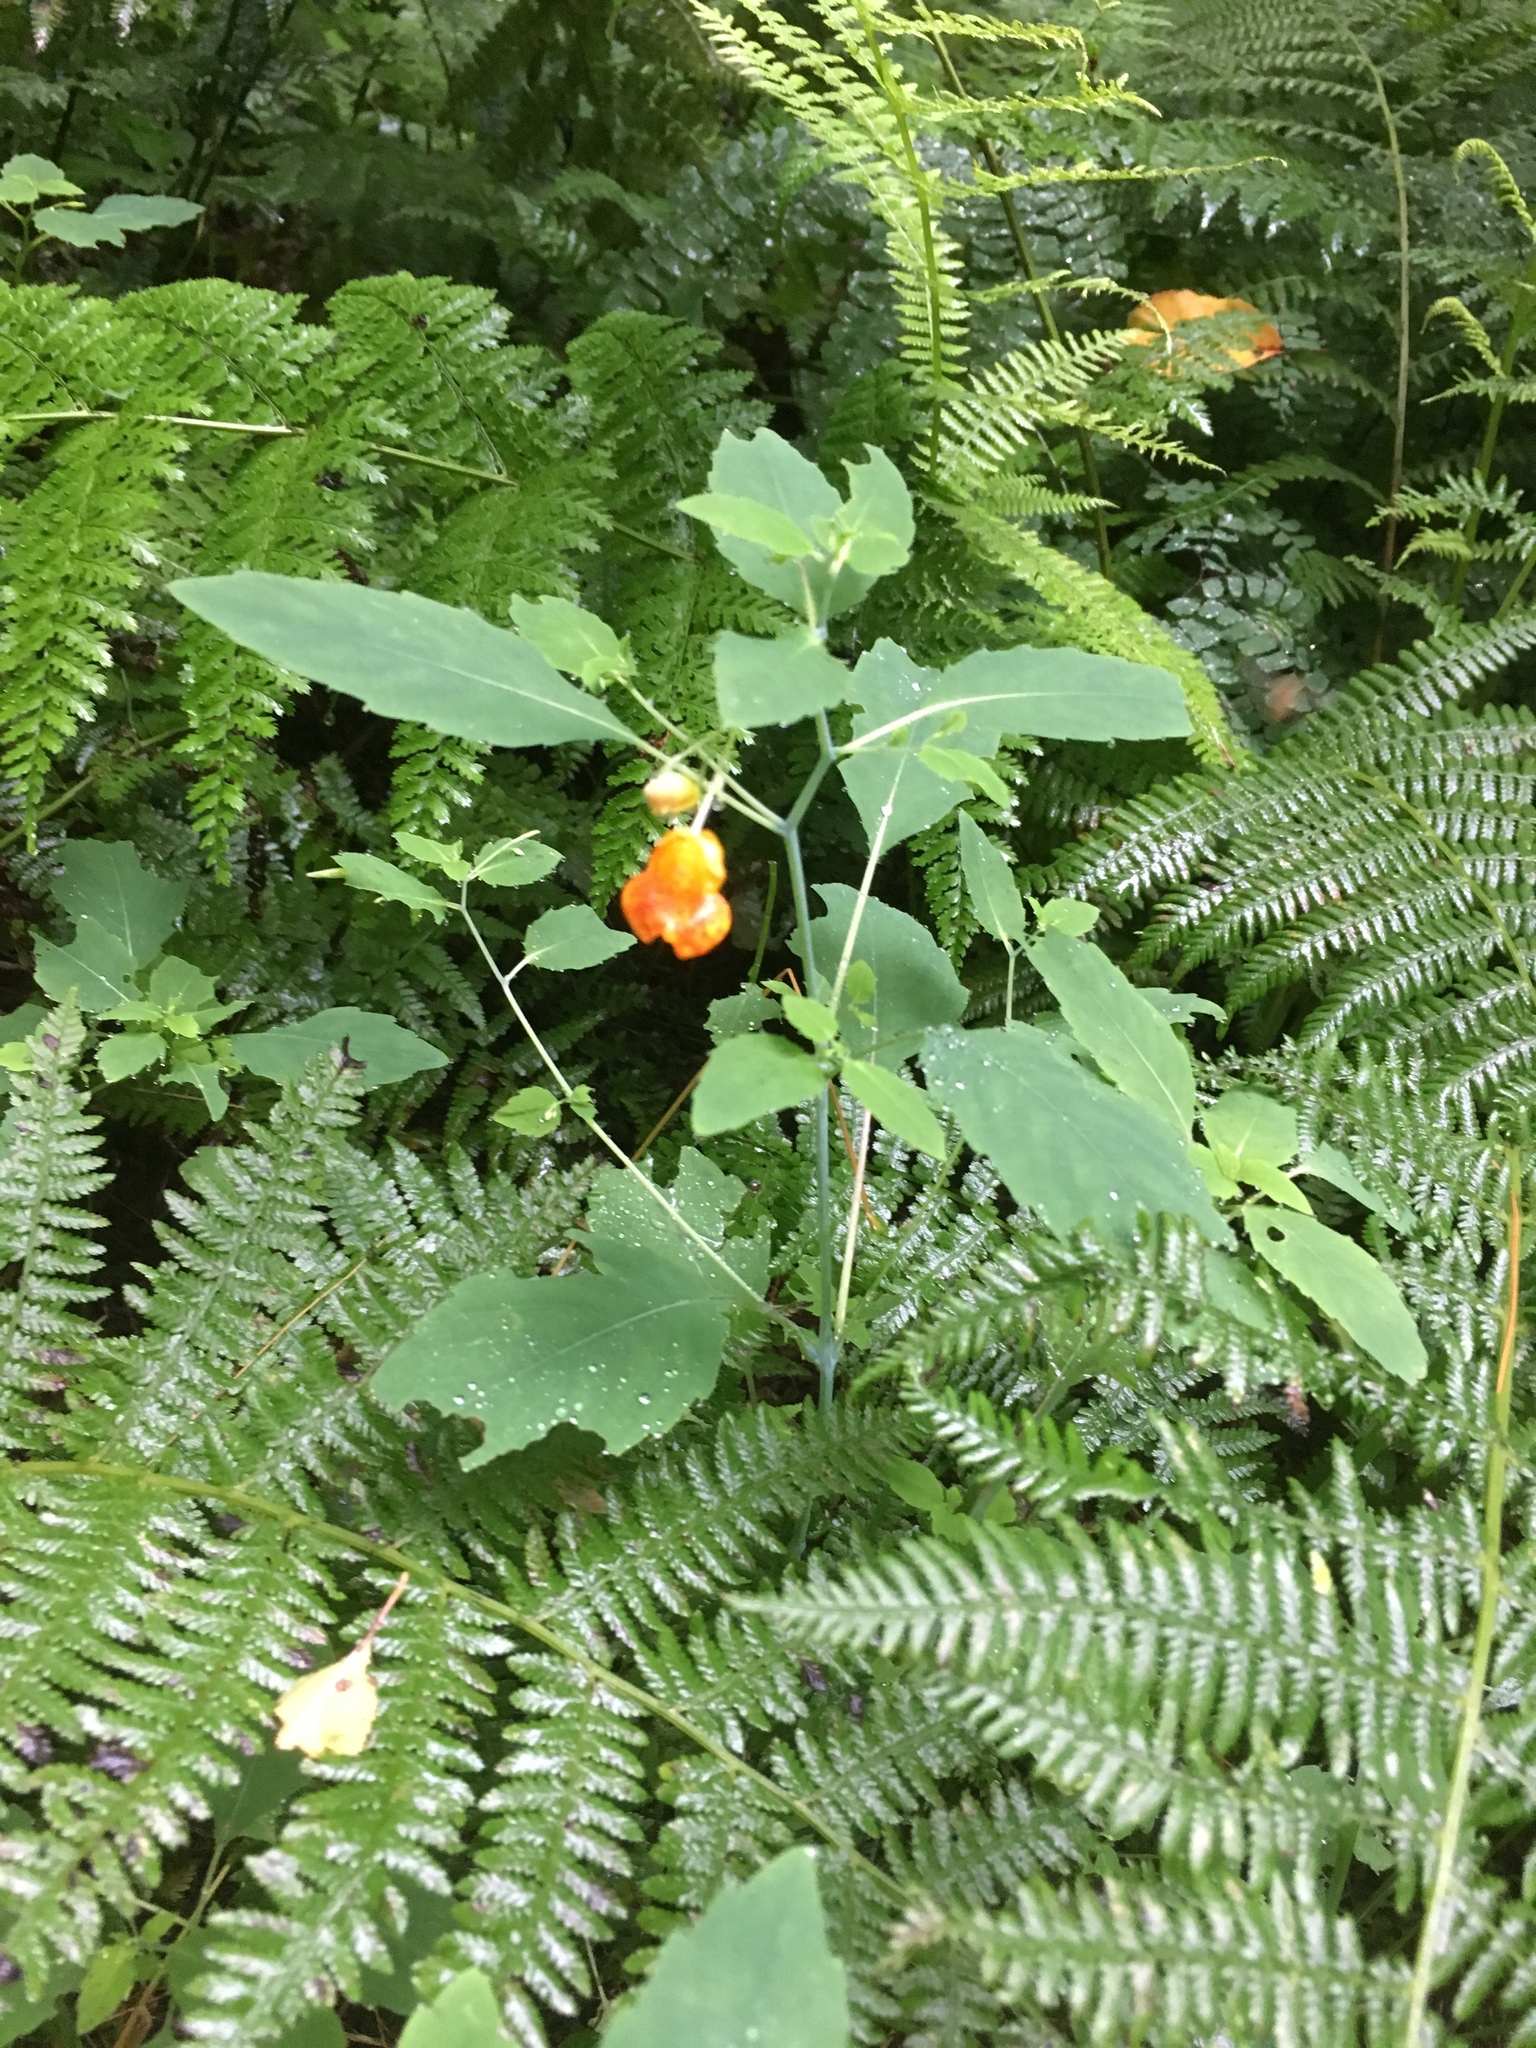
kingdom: Plantae
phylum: Tracheophyta
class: Magnoliopsida
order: Ericales
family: Balsaminaceae
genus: Impatiens
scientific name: Impatiens capensis
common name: Orange balsam
